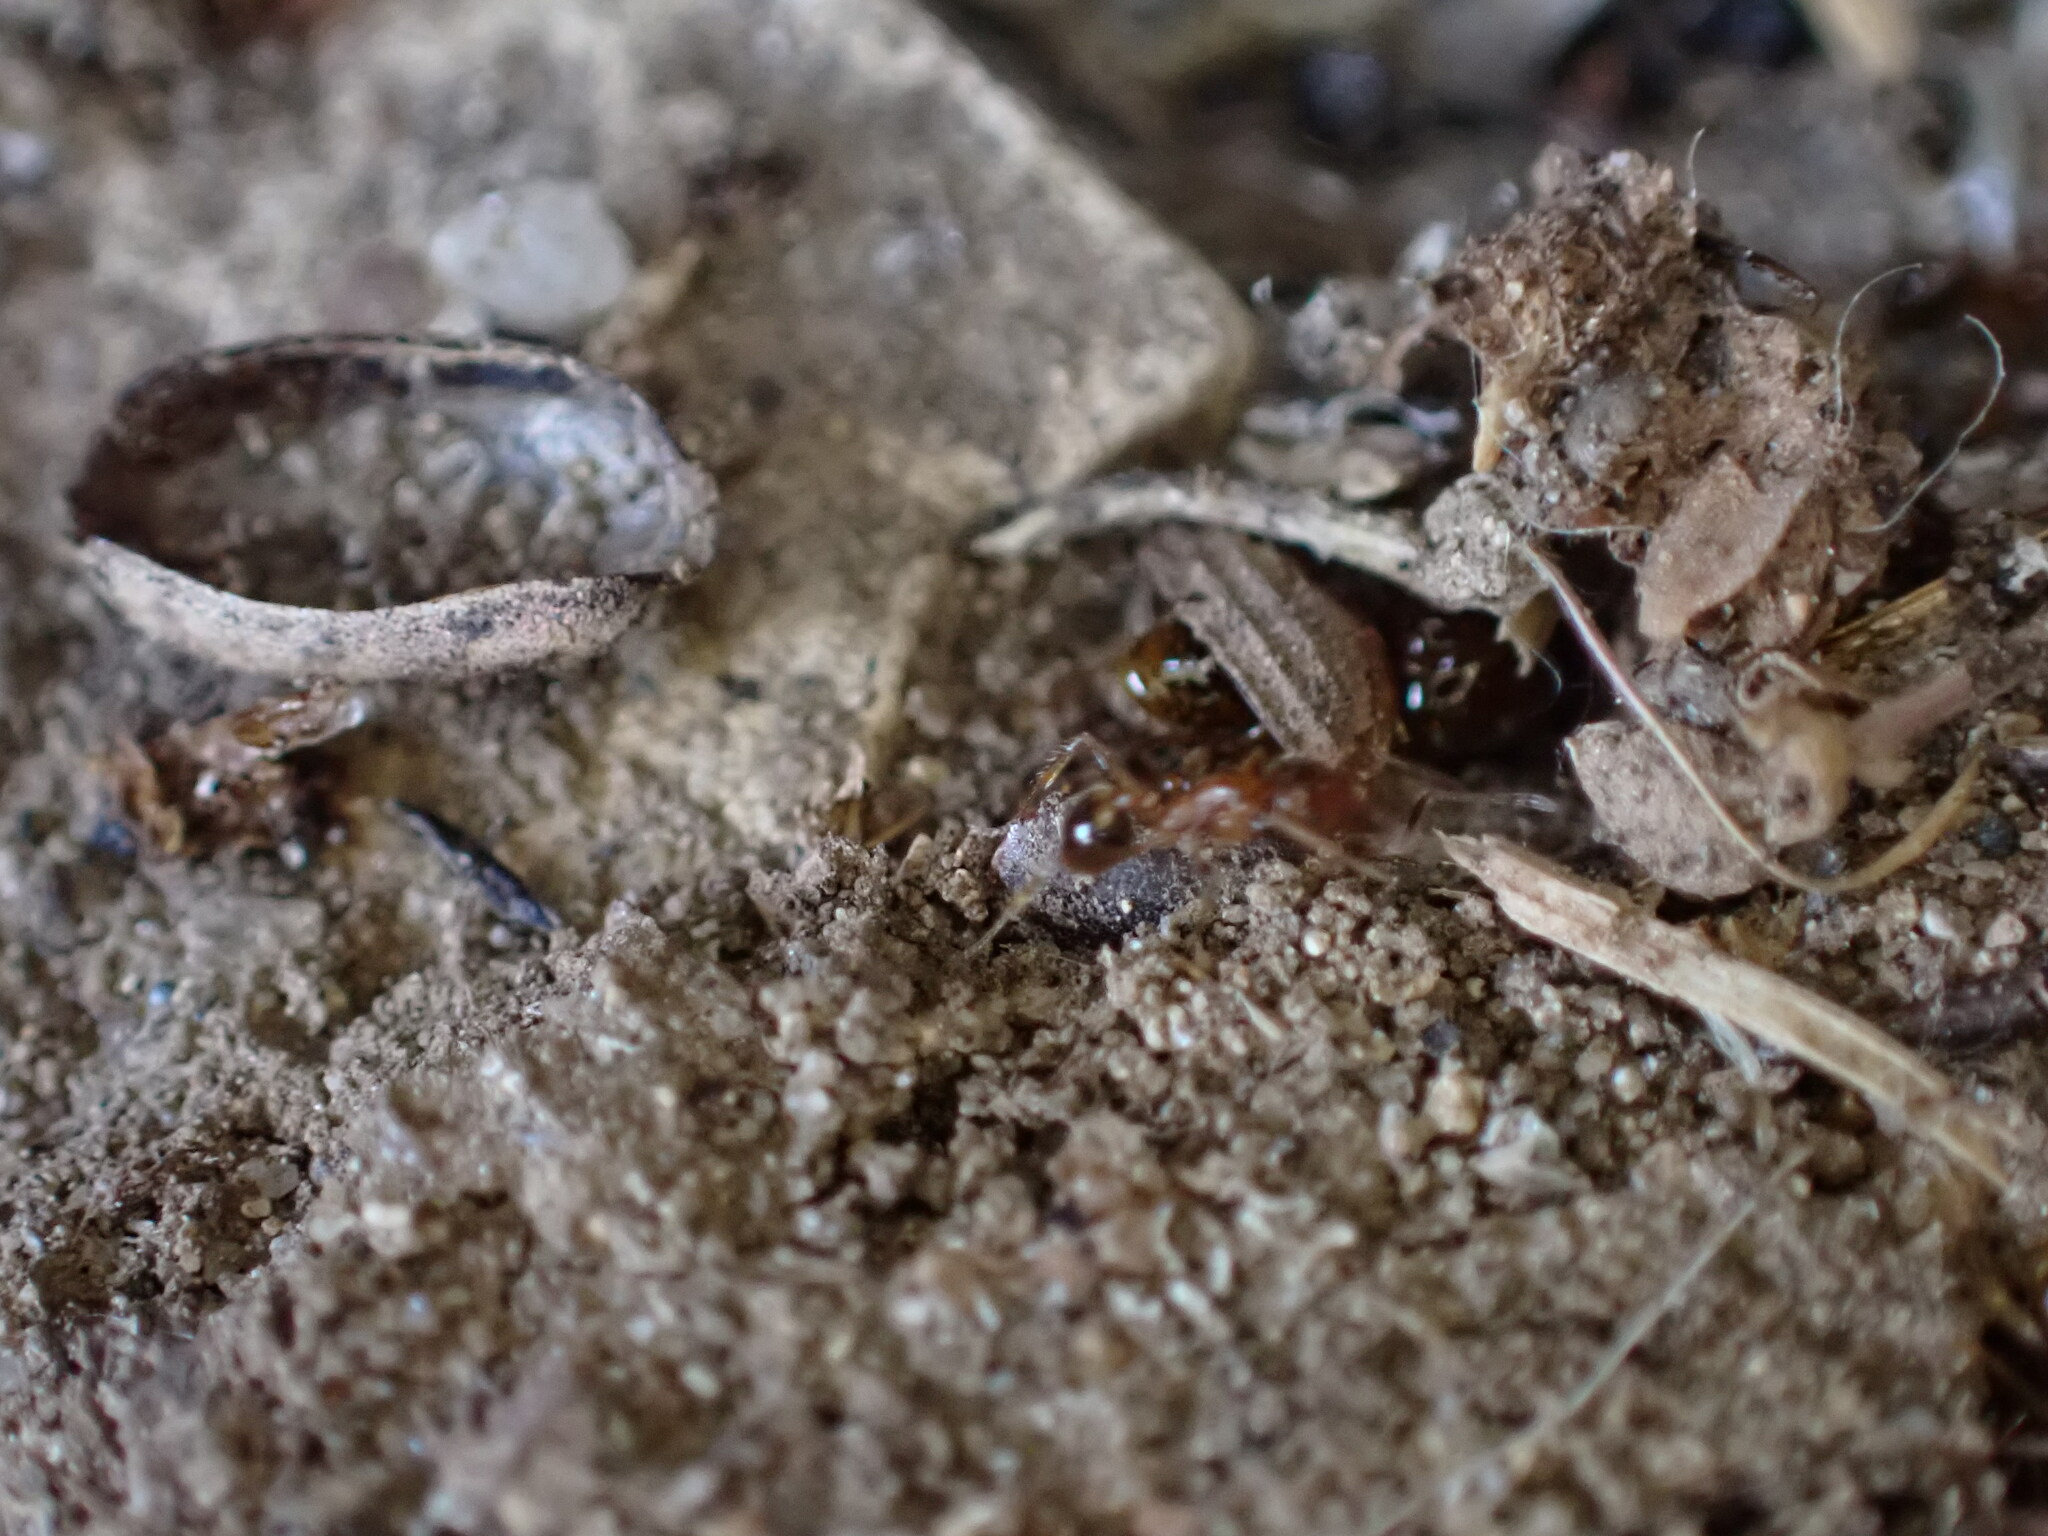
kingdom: Animalia
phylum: Arthropoda
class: Insecta
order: Hymenoptera
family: Formicidae
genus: Pheidole
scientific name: Pheidole pallidula
